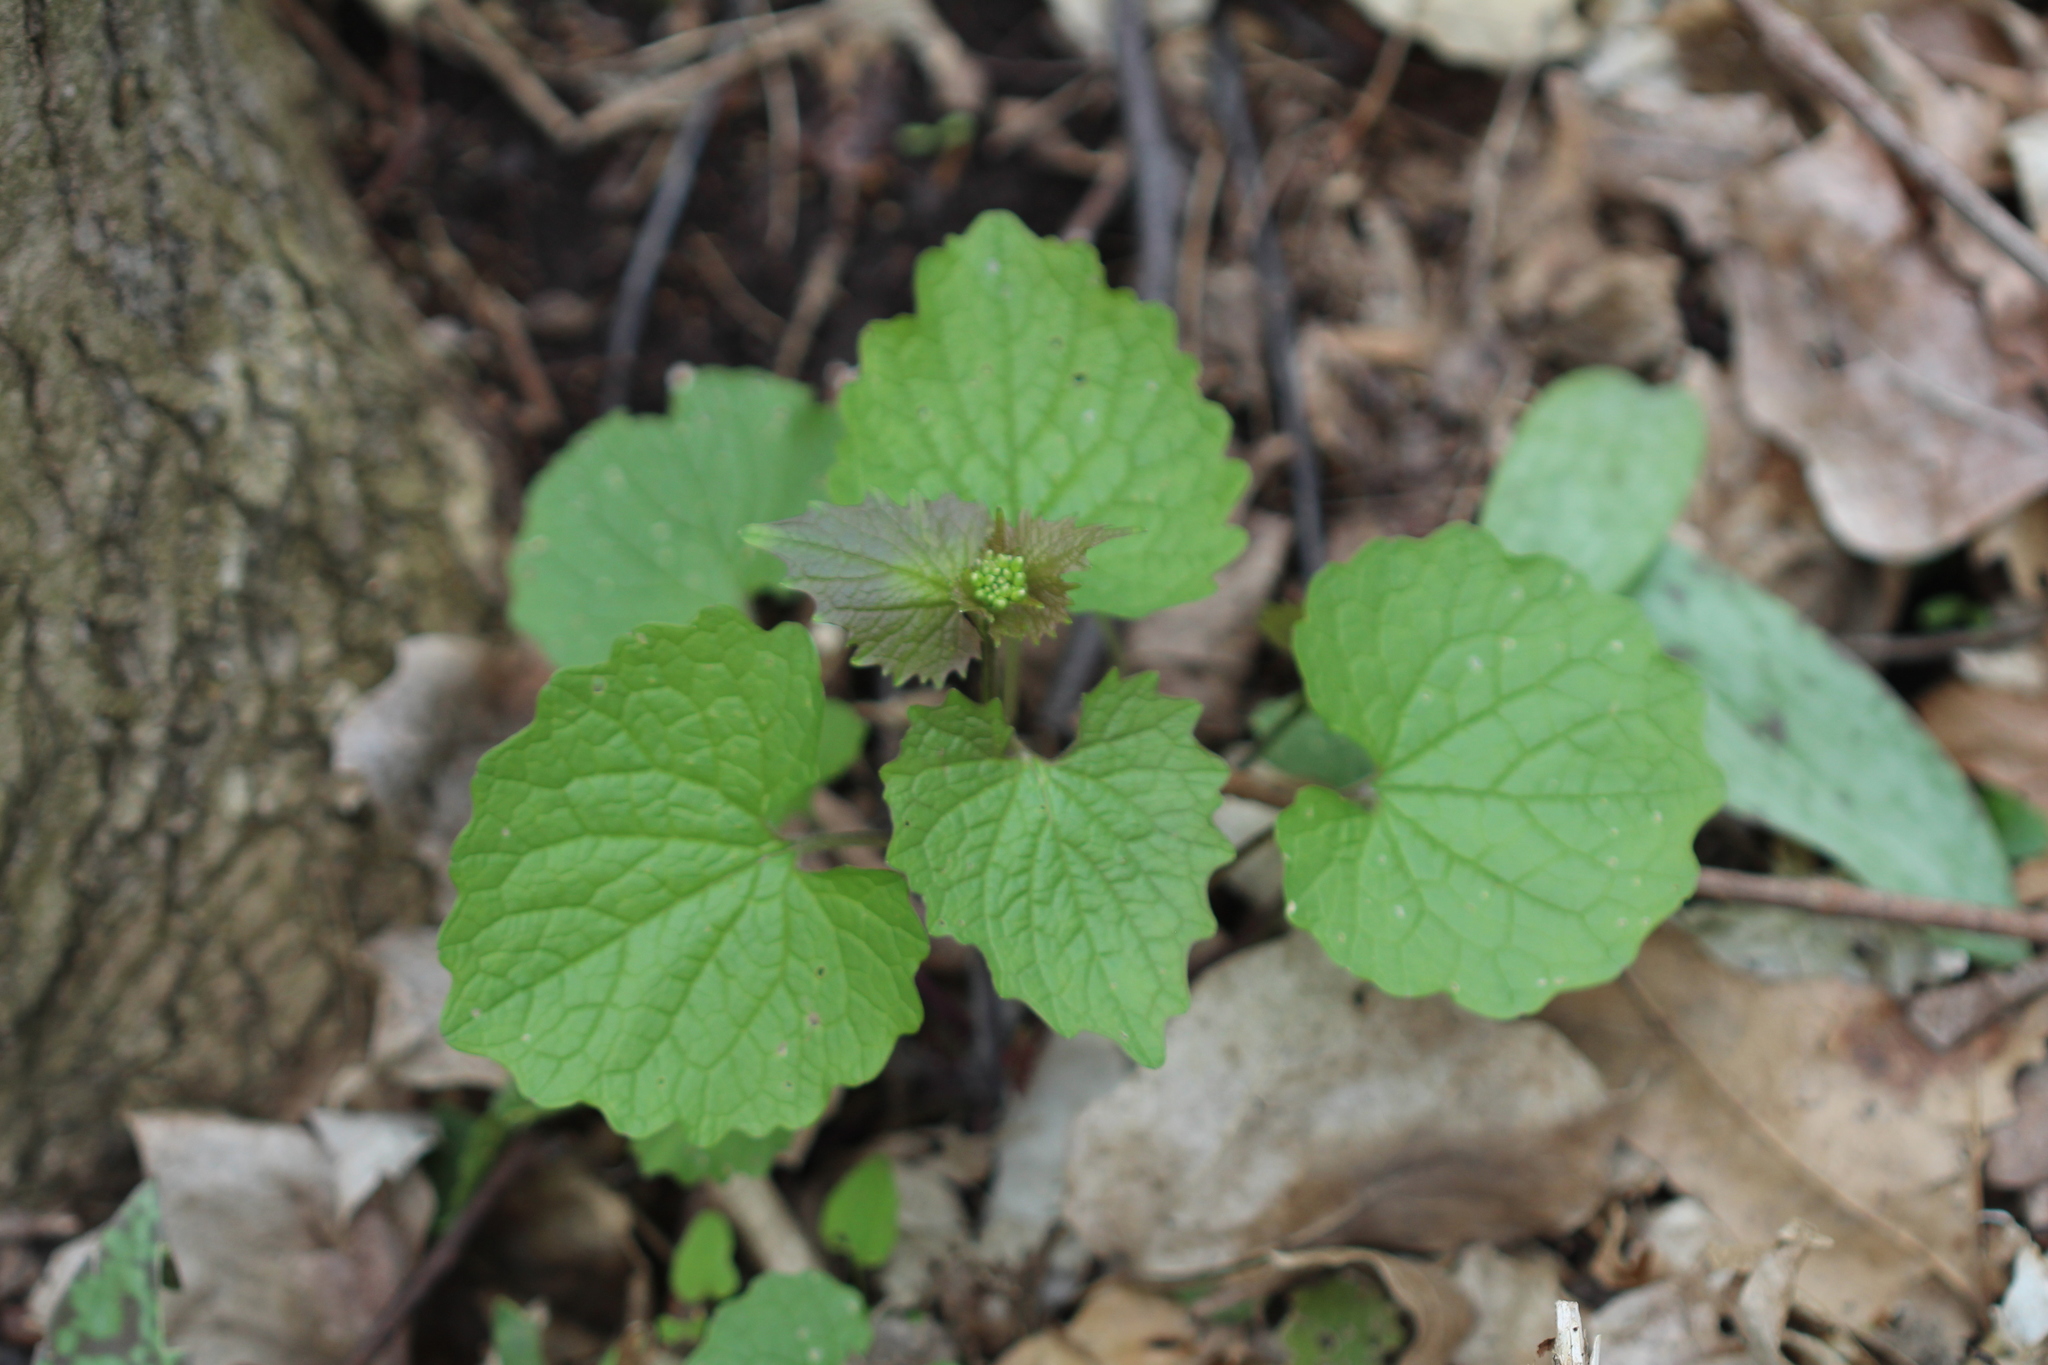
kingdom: Plantae
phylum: Tracheophyta
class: Magnoliopsida
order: Brassicales
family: Brassicaceae
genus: Alliaria
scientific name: Alliaria petiolata
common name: Garlic mustard
